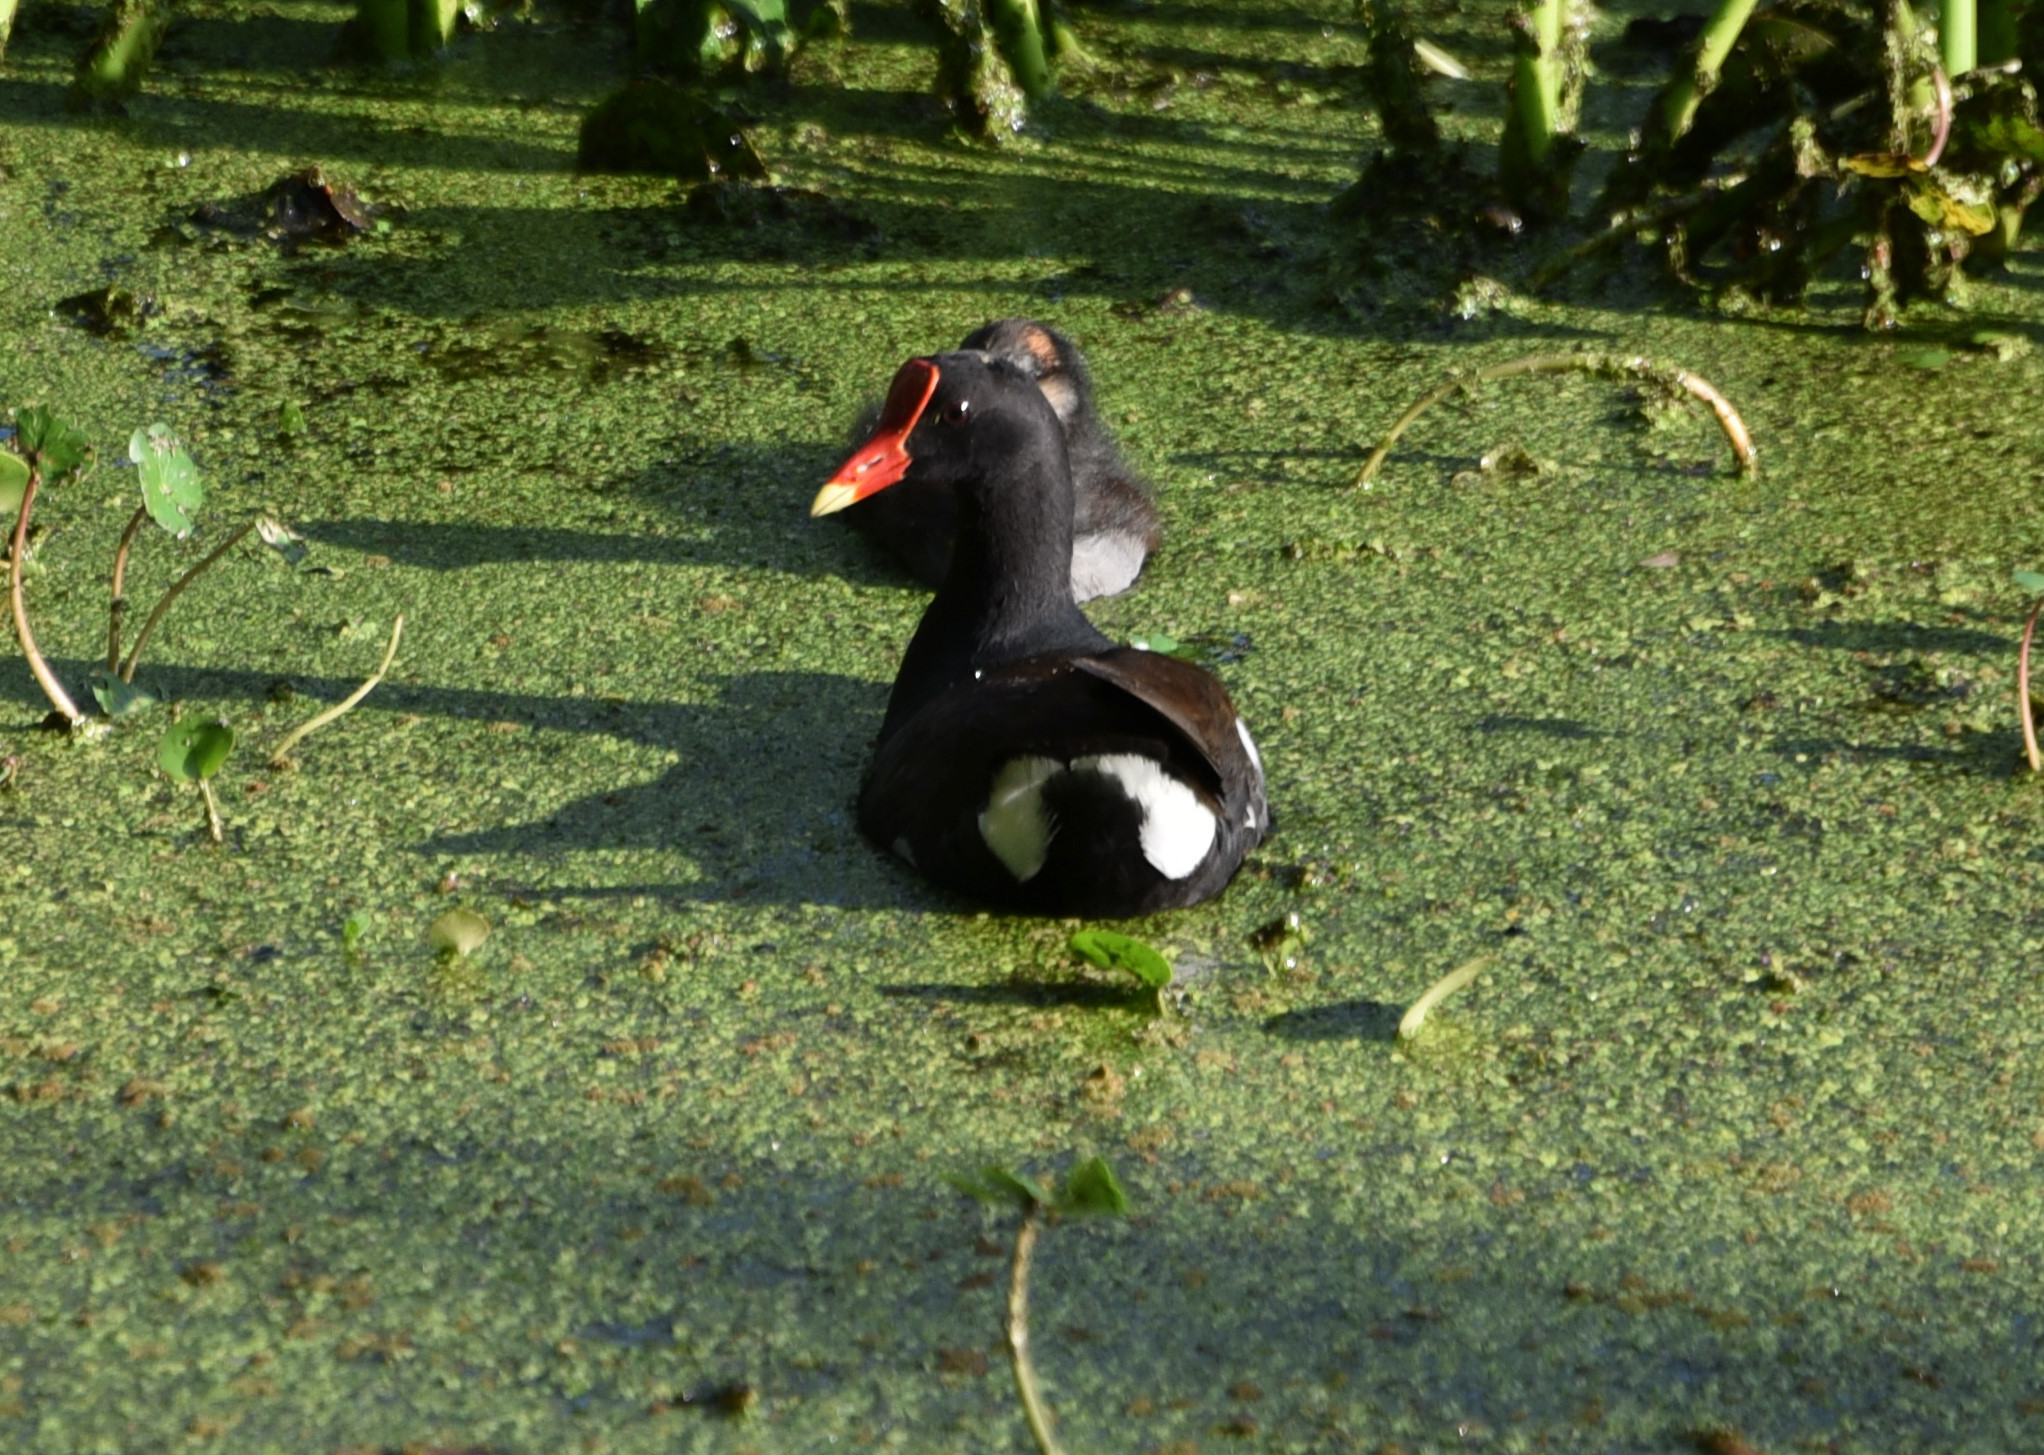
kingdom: Animalia
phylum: Chordata
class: Aves
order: Gruiformes
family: Rallidae
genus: Gallinula
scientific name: Gallinula chloropus
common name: Common moorhen
